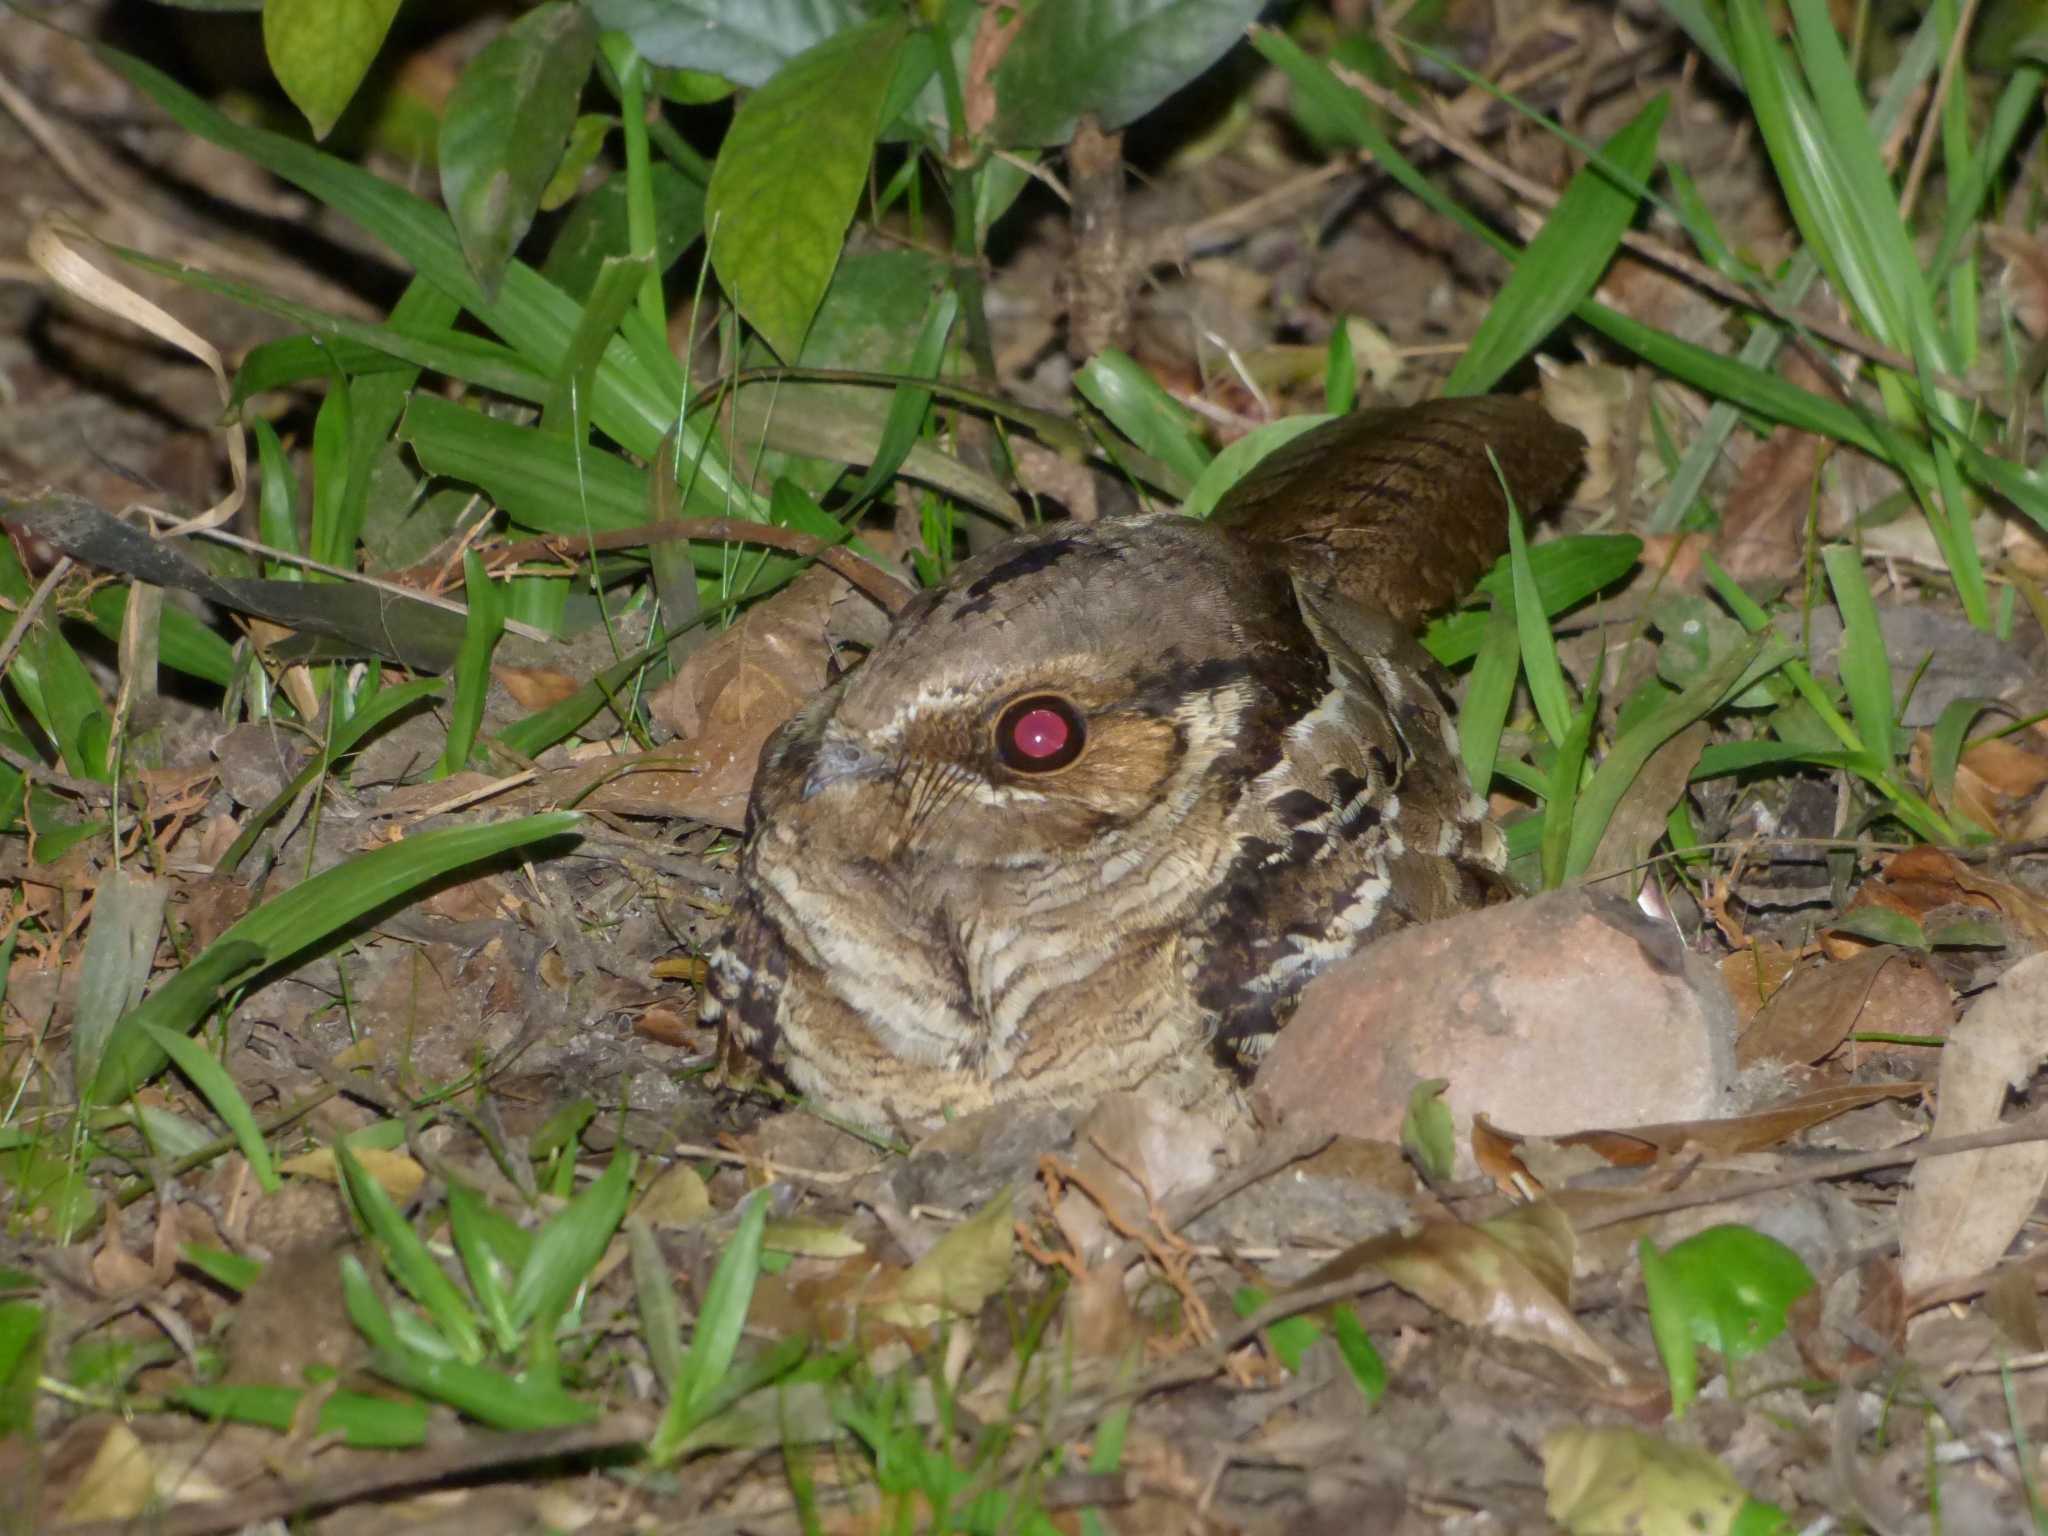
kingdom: Animalia
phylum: Chordata
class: Aves
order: Caprimulgiformes
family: Caprimulgidae
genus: Nyctidromus
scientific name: Nyctidromus albicollis
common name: Pauraque
